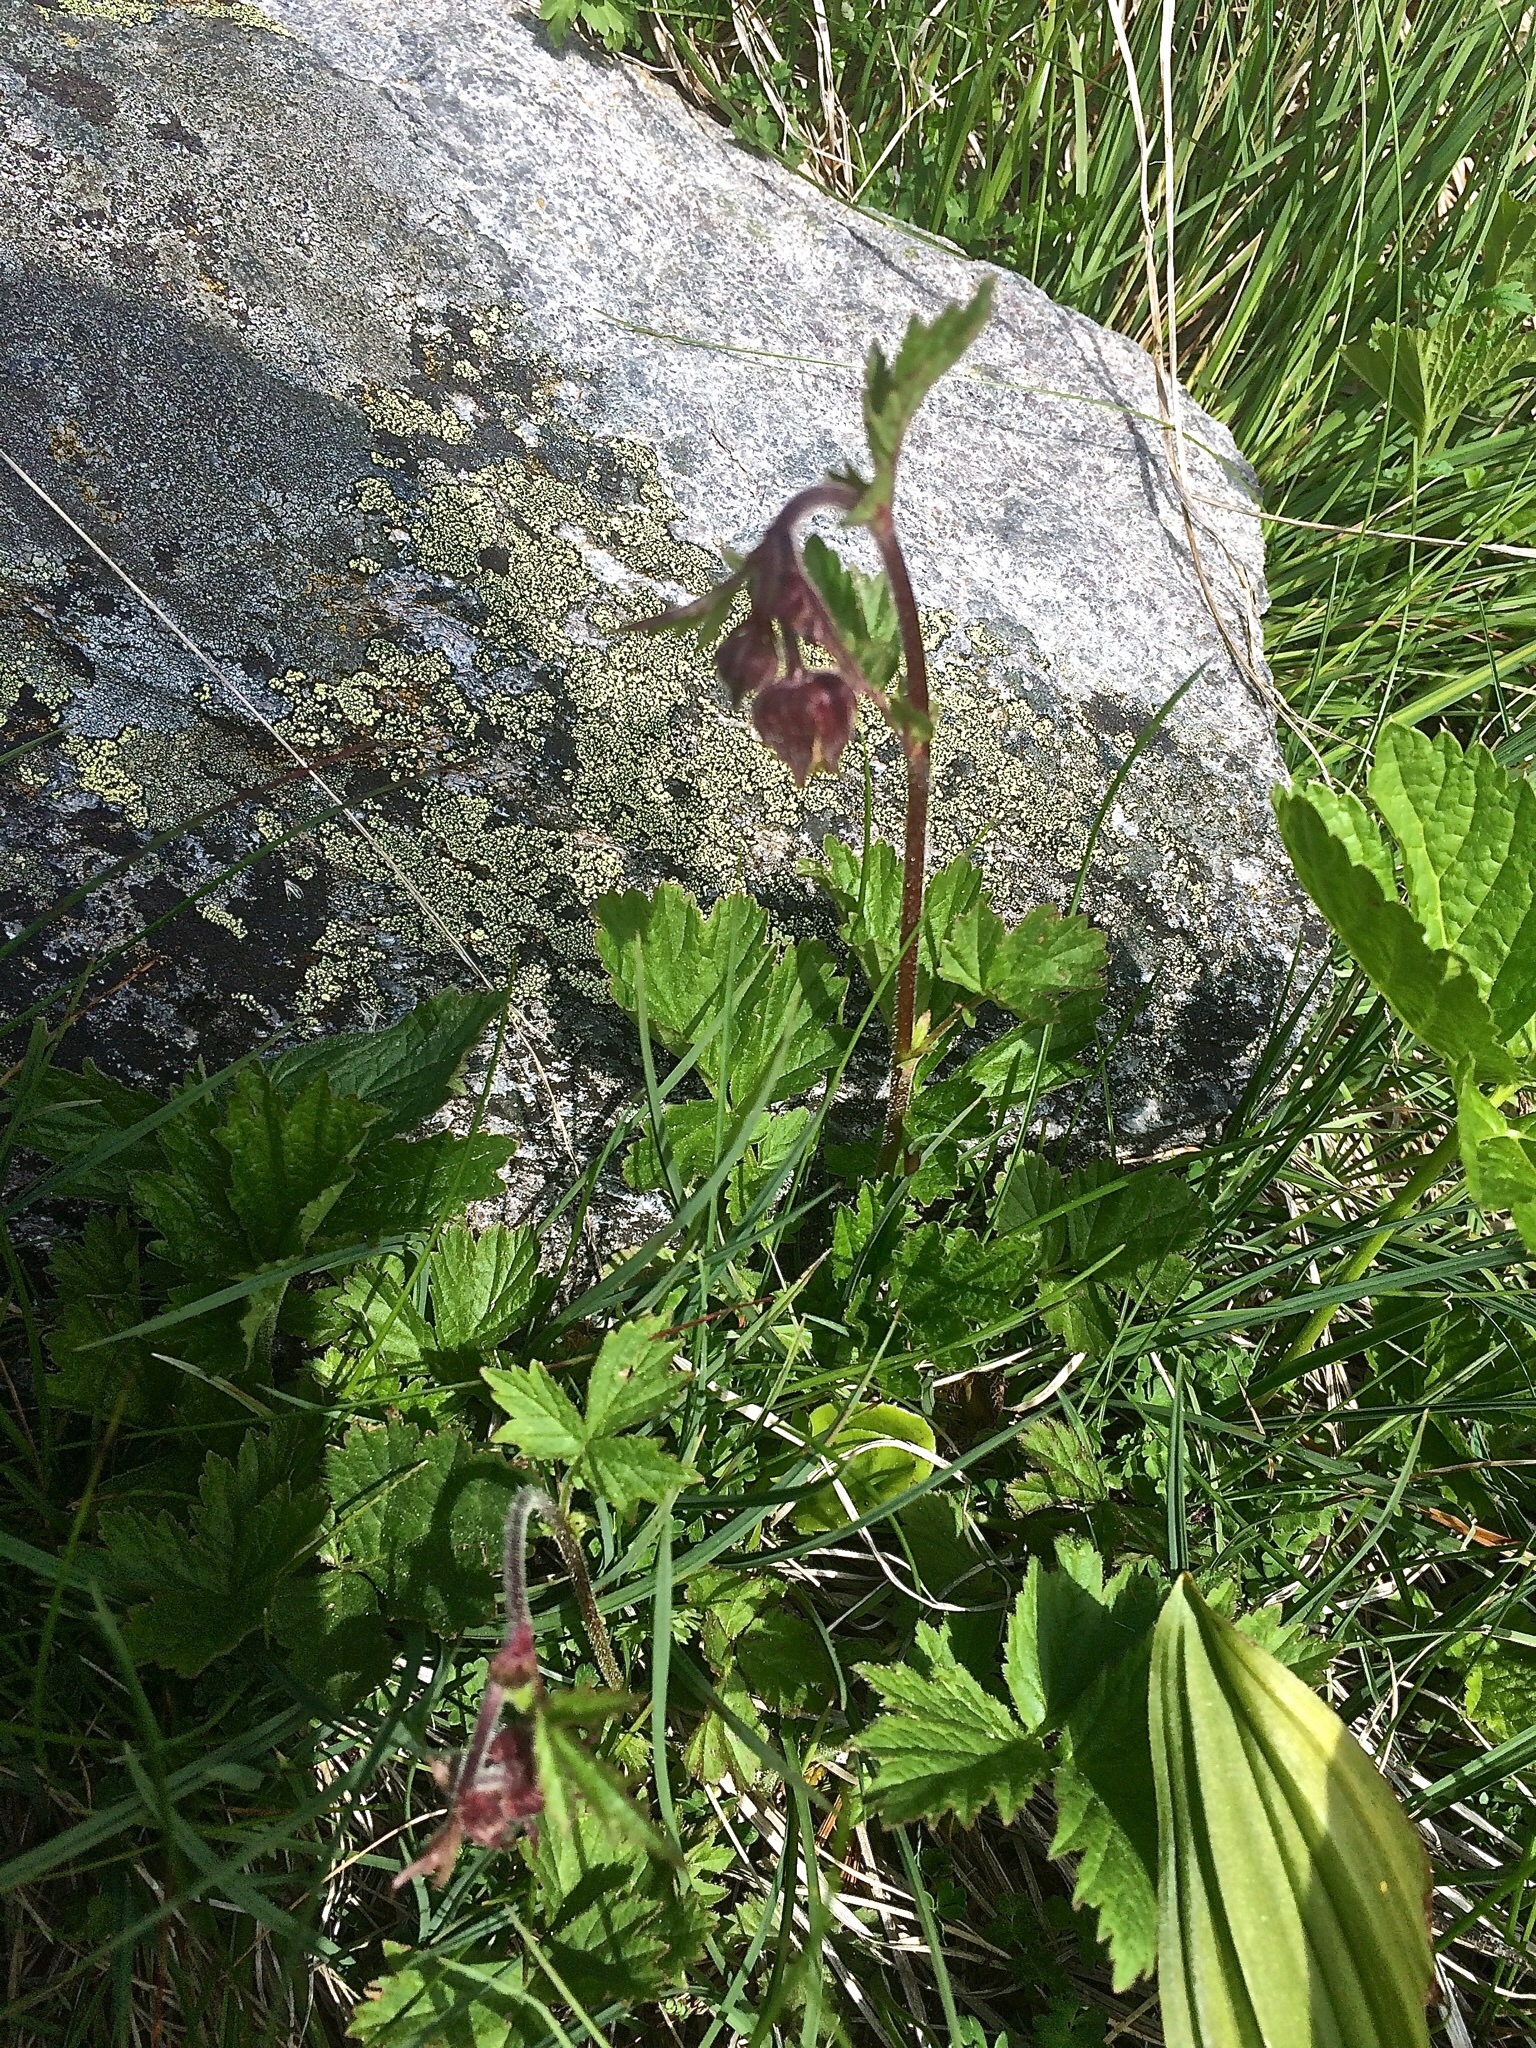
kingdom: Plantae
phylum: Tracheophyta
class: Magnoliopsida
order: Rosales
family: Rosaceae
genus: Geum
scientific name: Geum rivale
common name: Water avens
